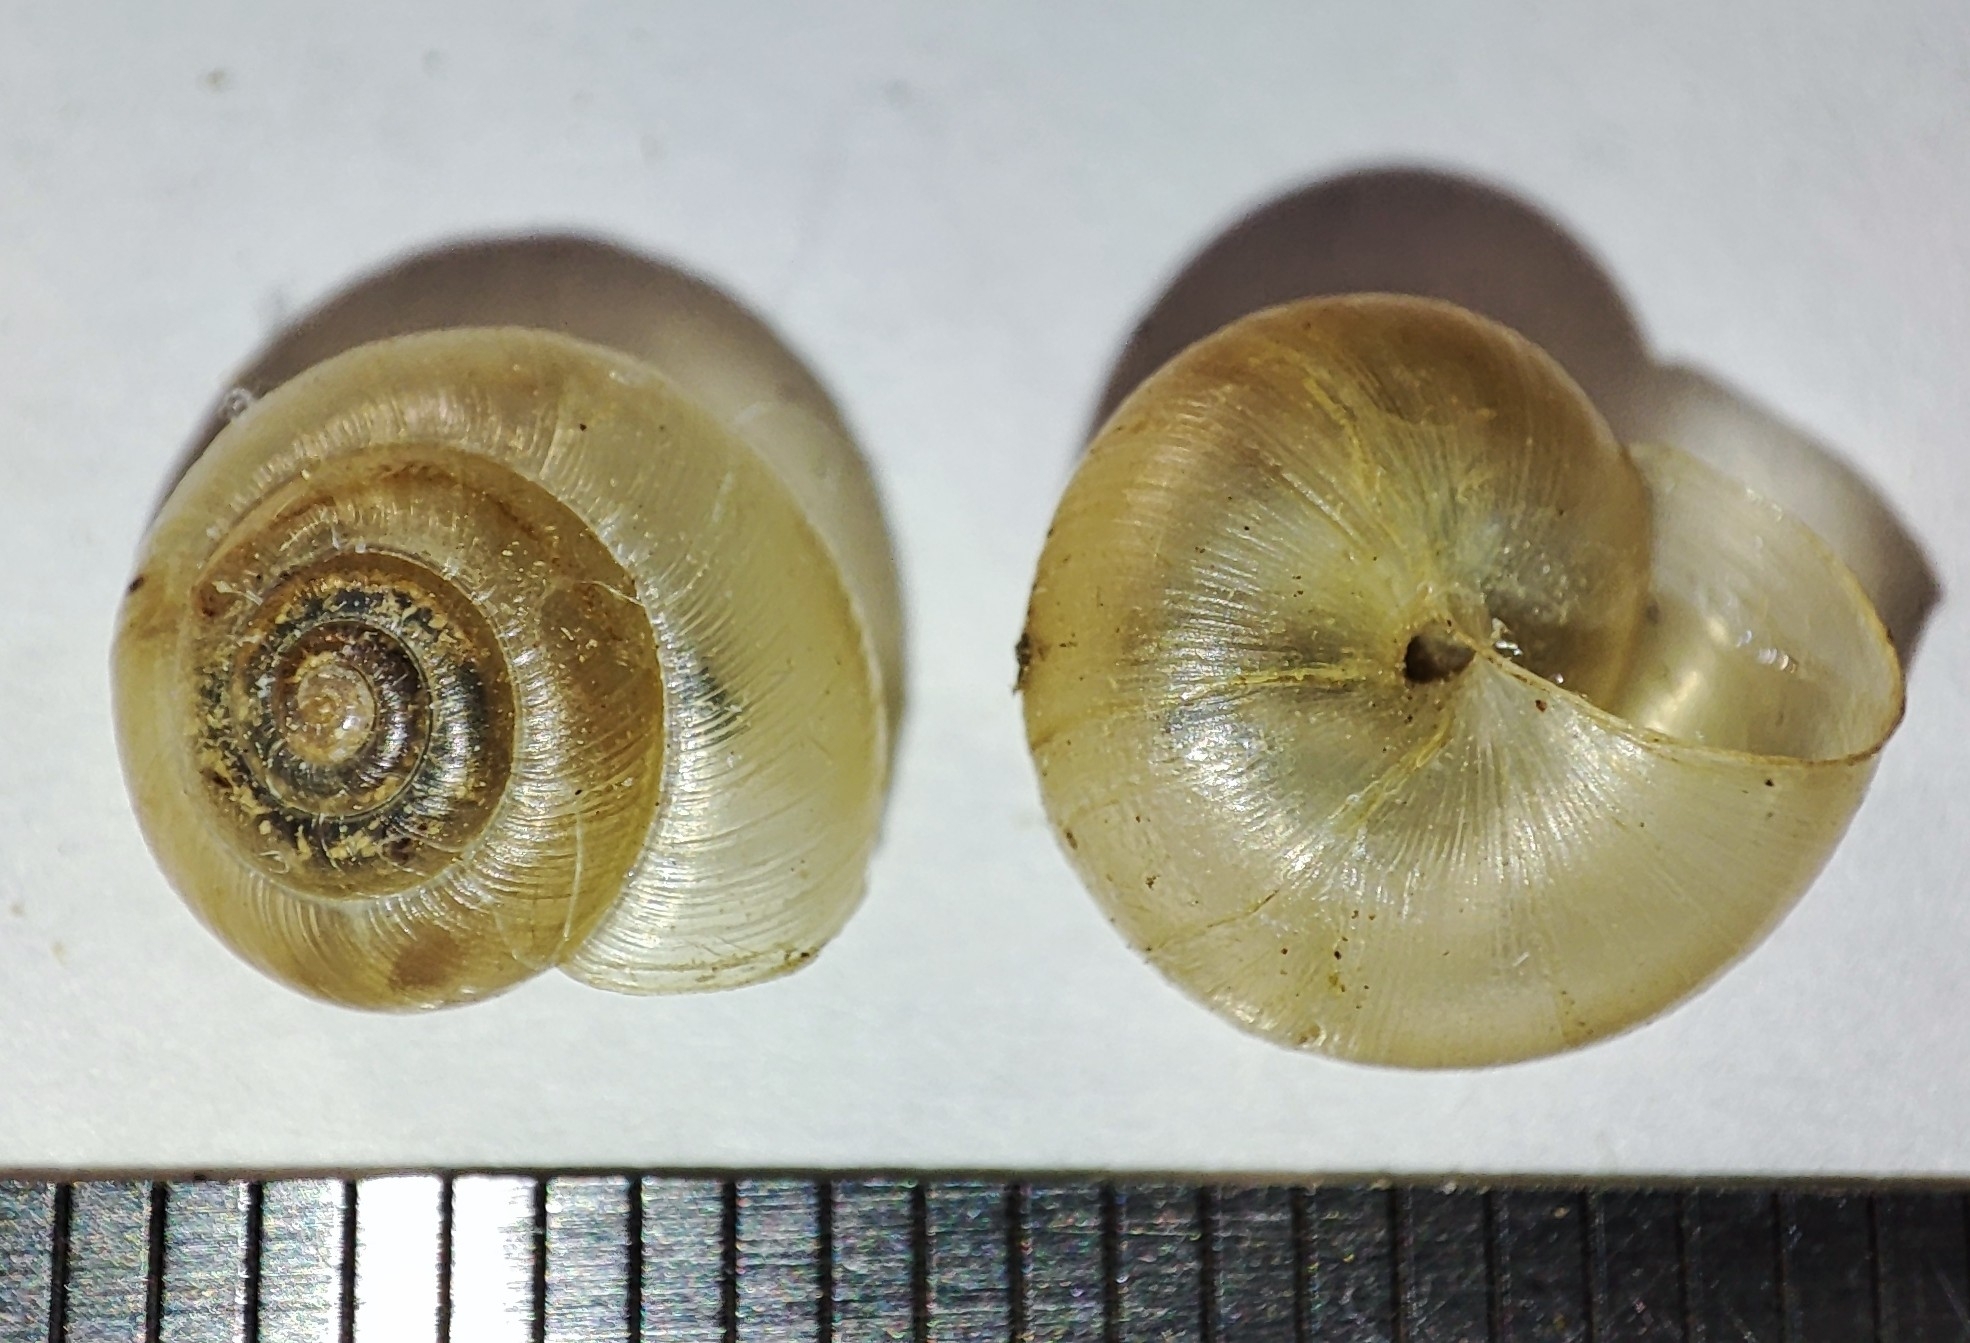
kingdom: Animalia
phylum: Mollusca
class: Gastropoda
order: Stylommatophora
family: Hygromiidae
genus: Plicuteria
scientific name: Plicuteria lubomirskii
